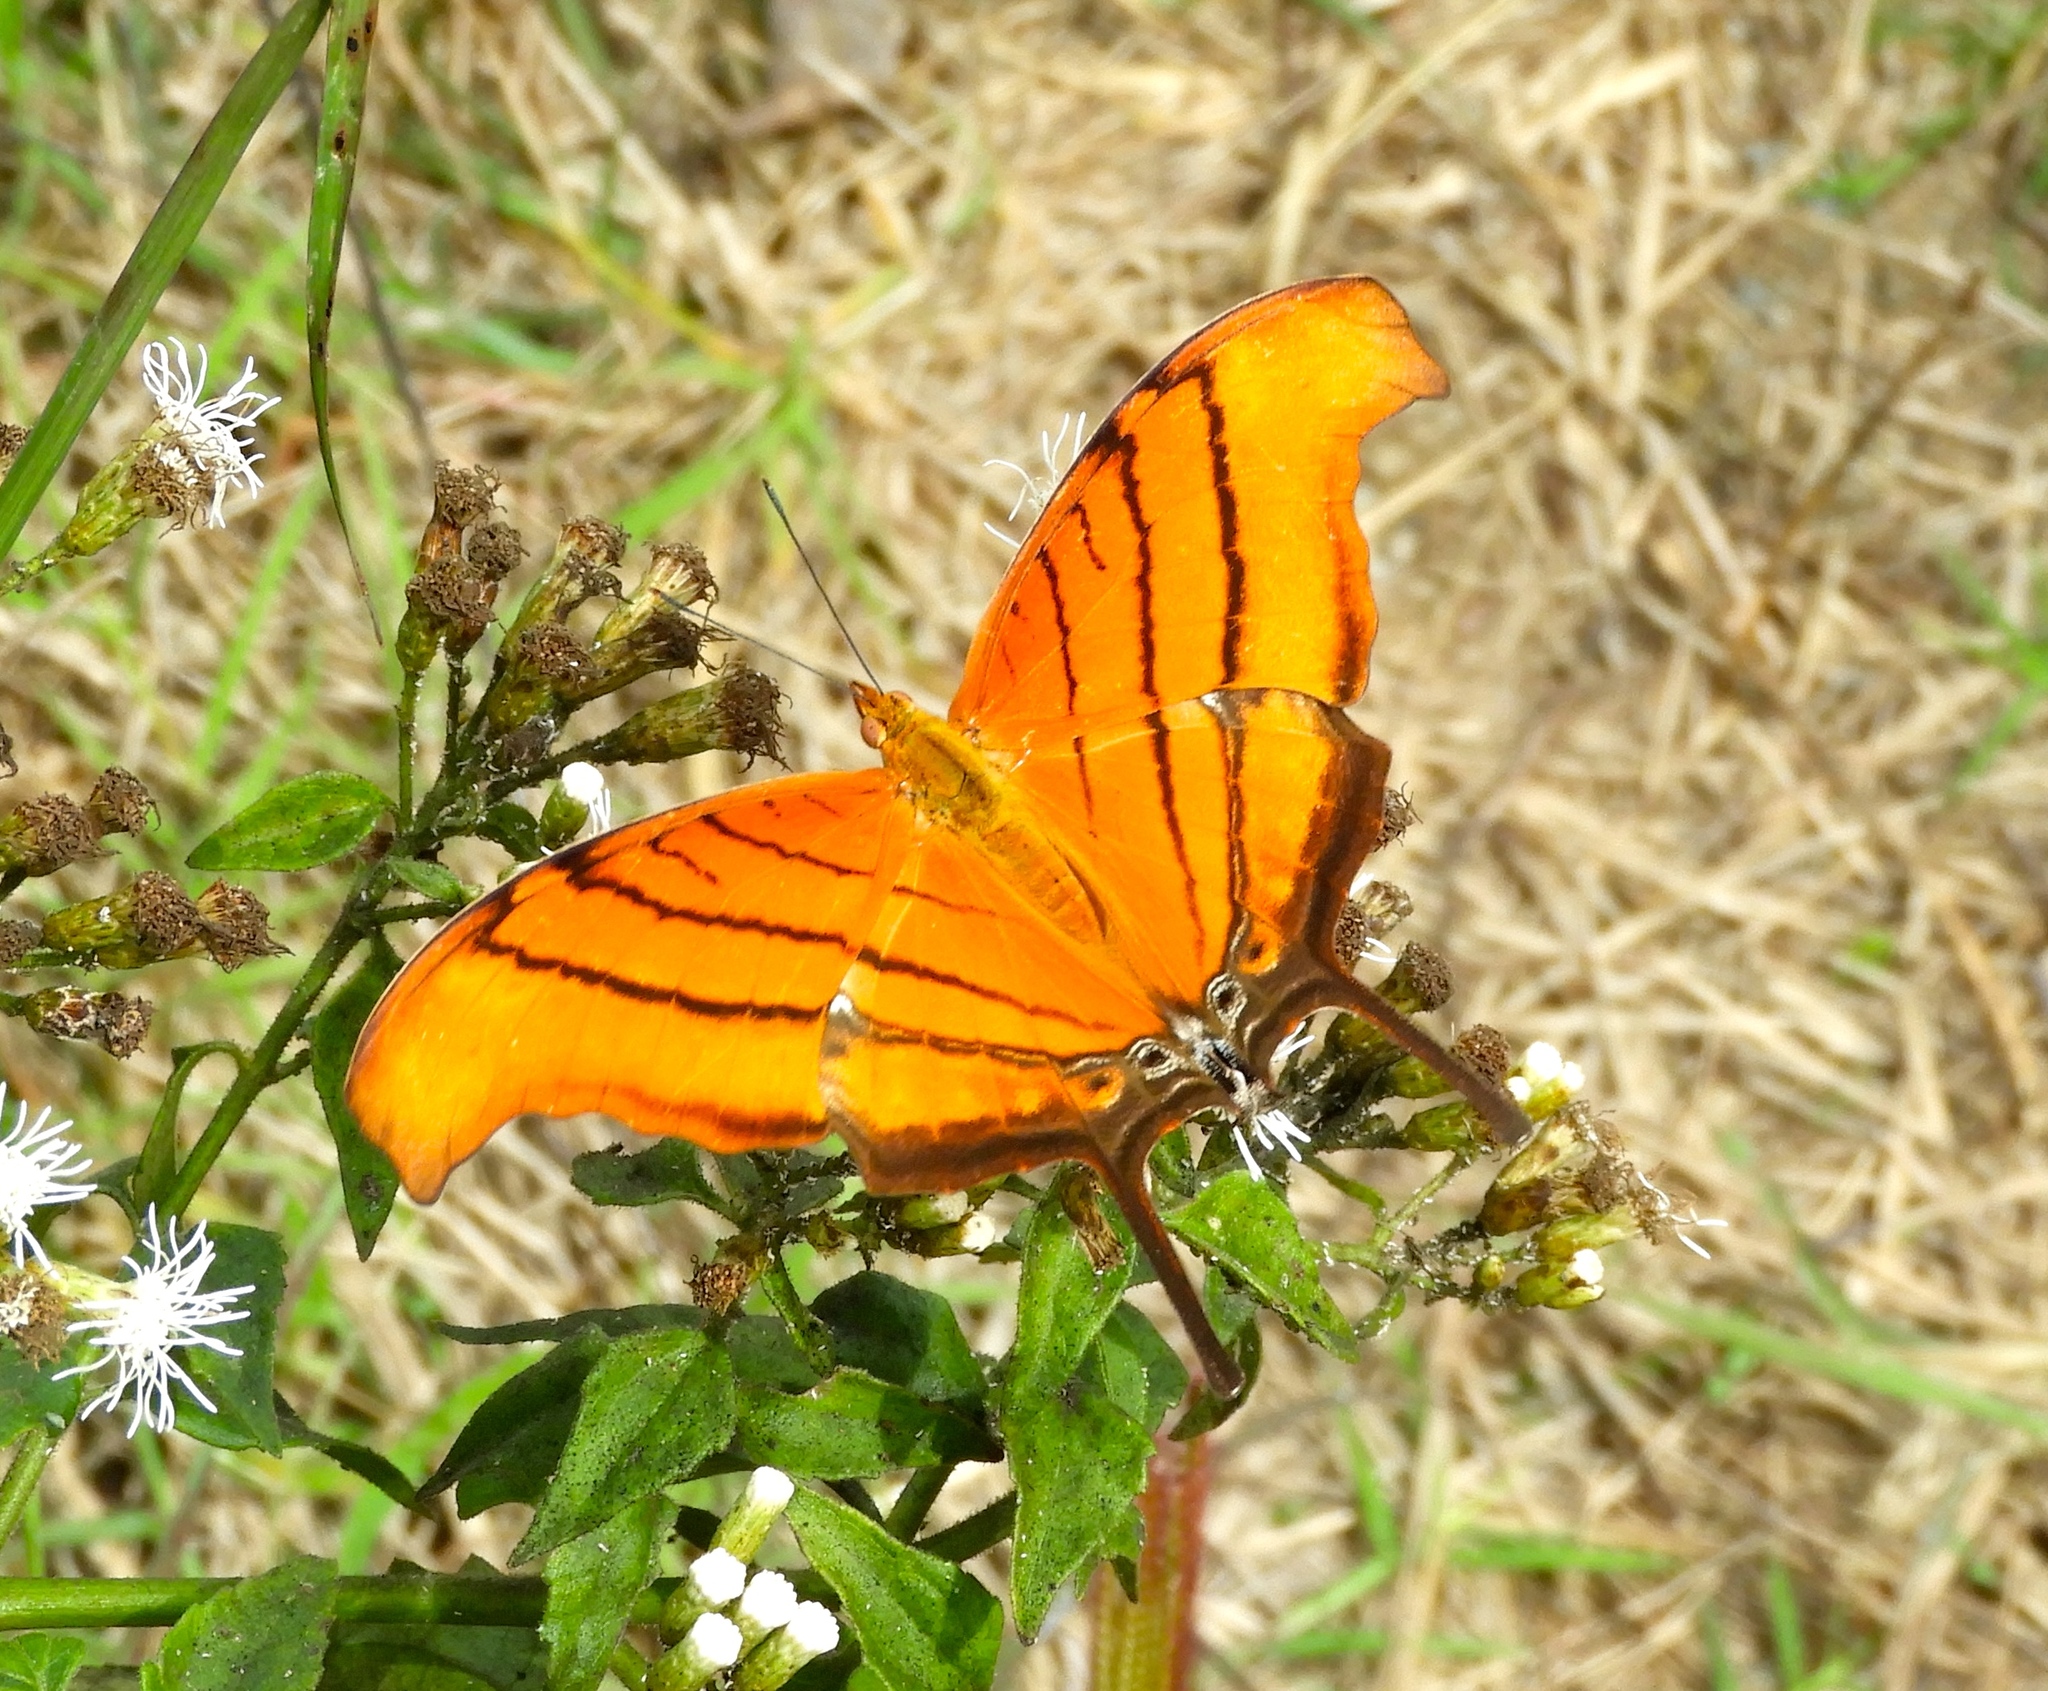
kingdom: Animalia
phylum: Arthropoda
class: Insecta
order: Lepidoptera
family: Nymphalidae
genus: Marpesia
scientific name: Marpesia petreus
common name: Red dagger wing
